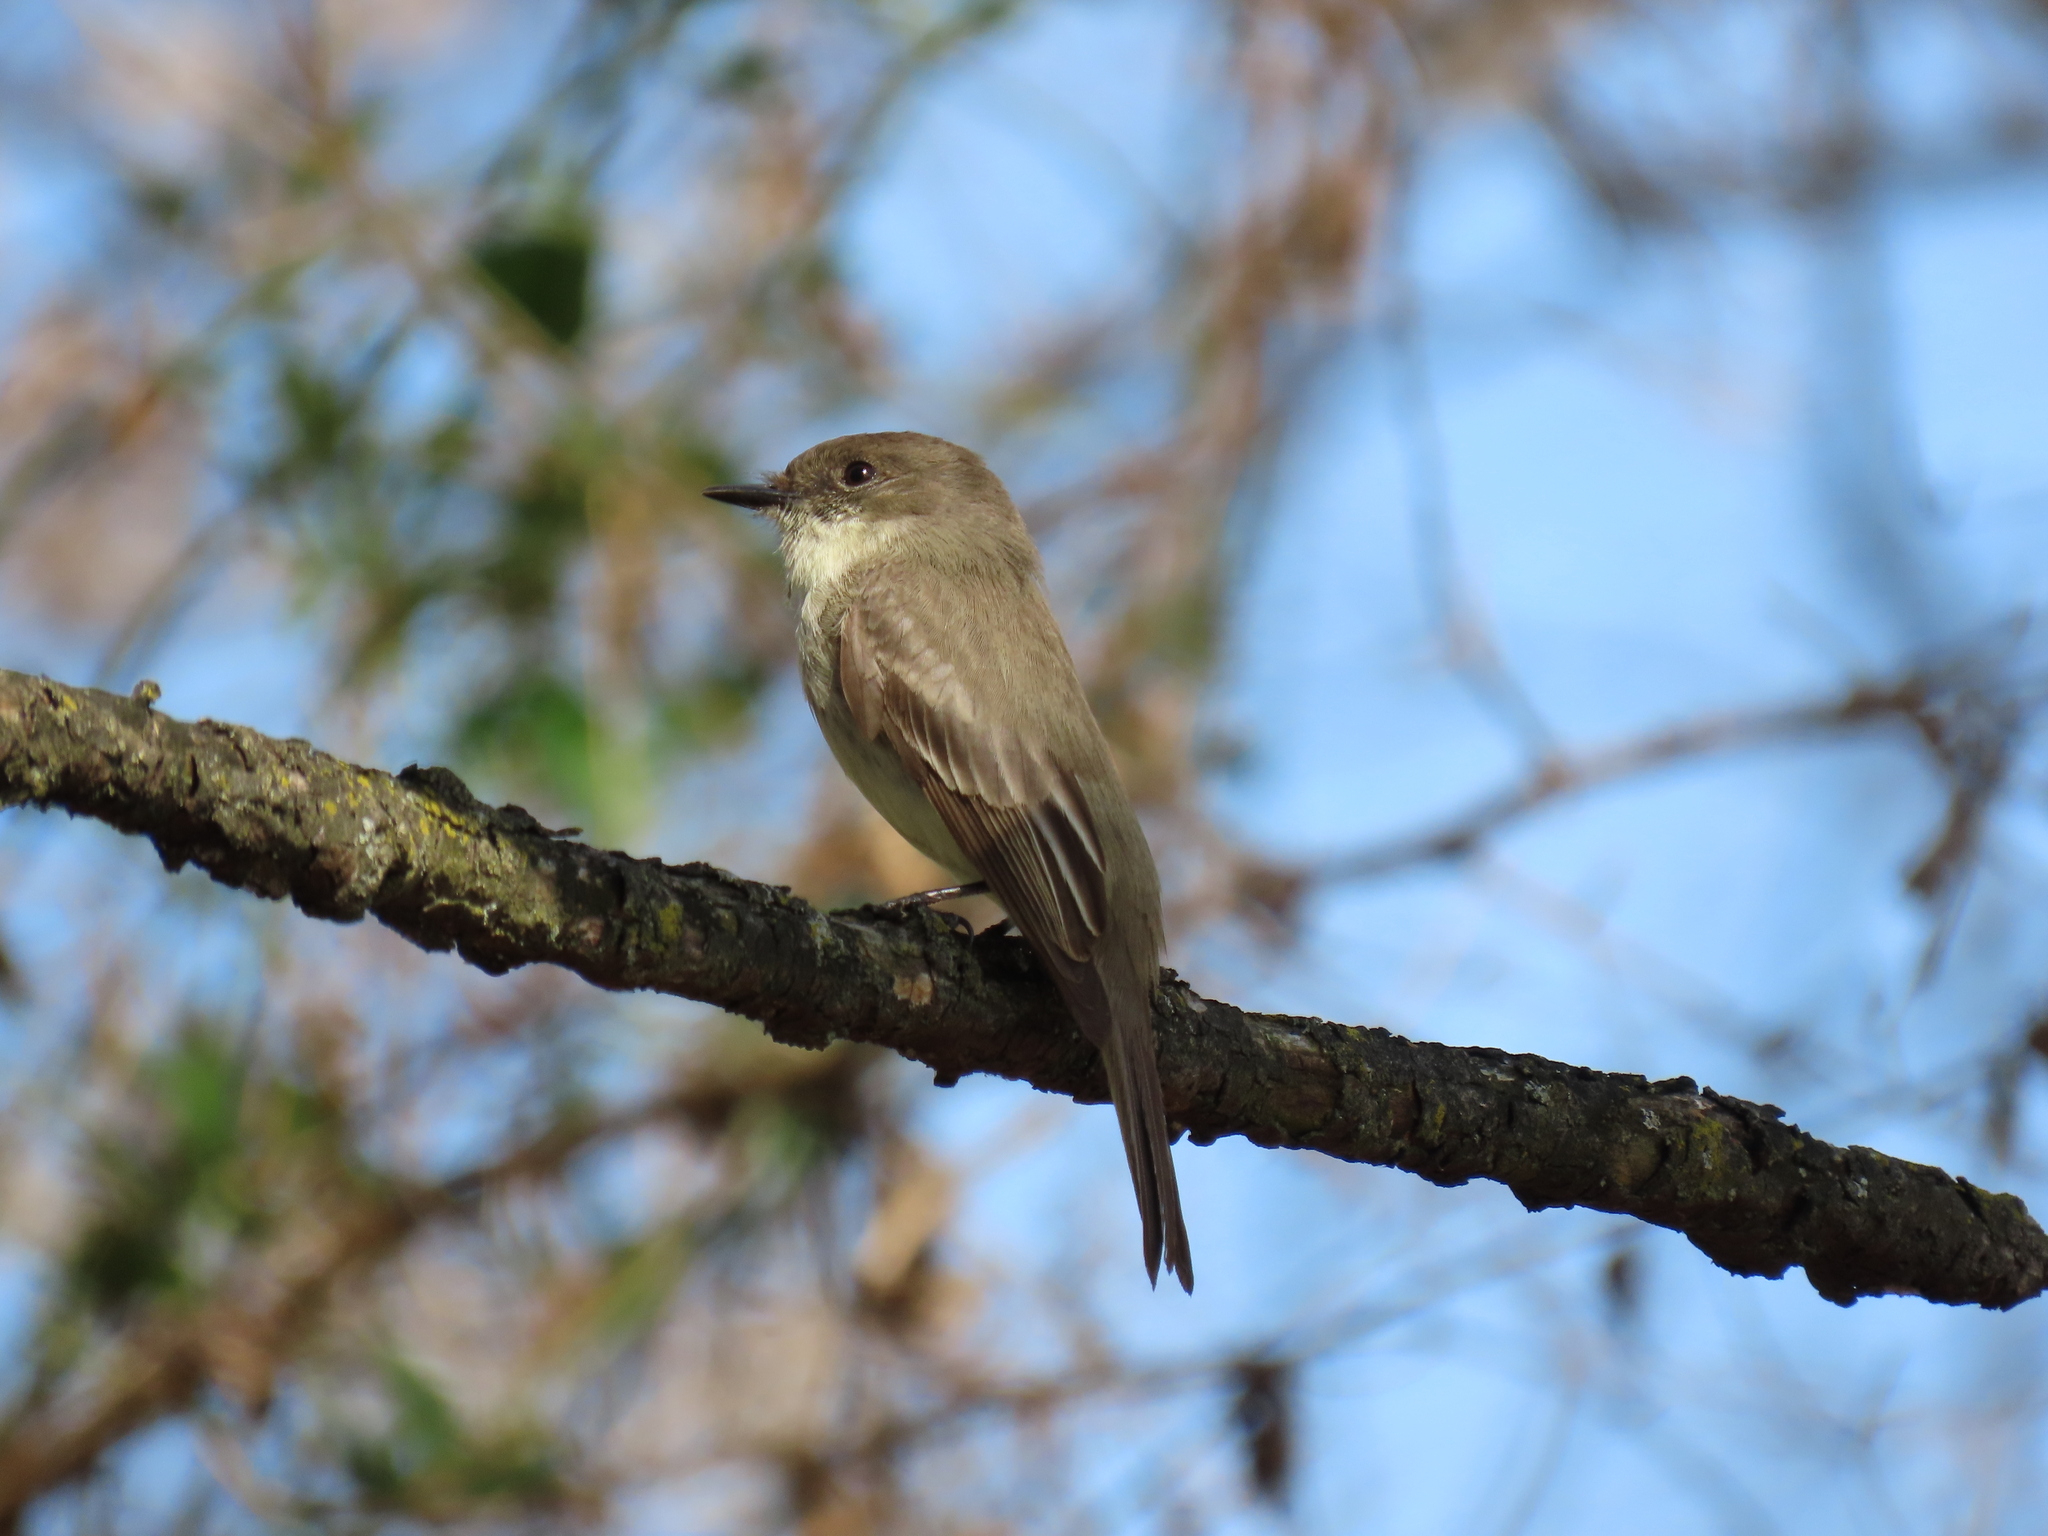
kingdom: Animalia
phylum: Chordata
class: Aves
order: Passeriformes
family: Tyrannidae
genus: Sayornis
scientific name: Sayornis phoebe
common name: Eastern phoebe
